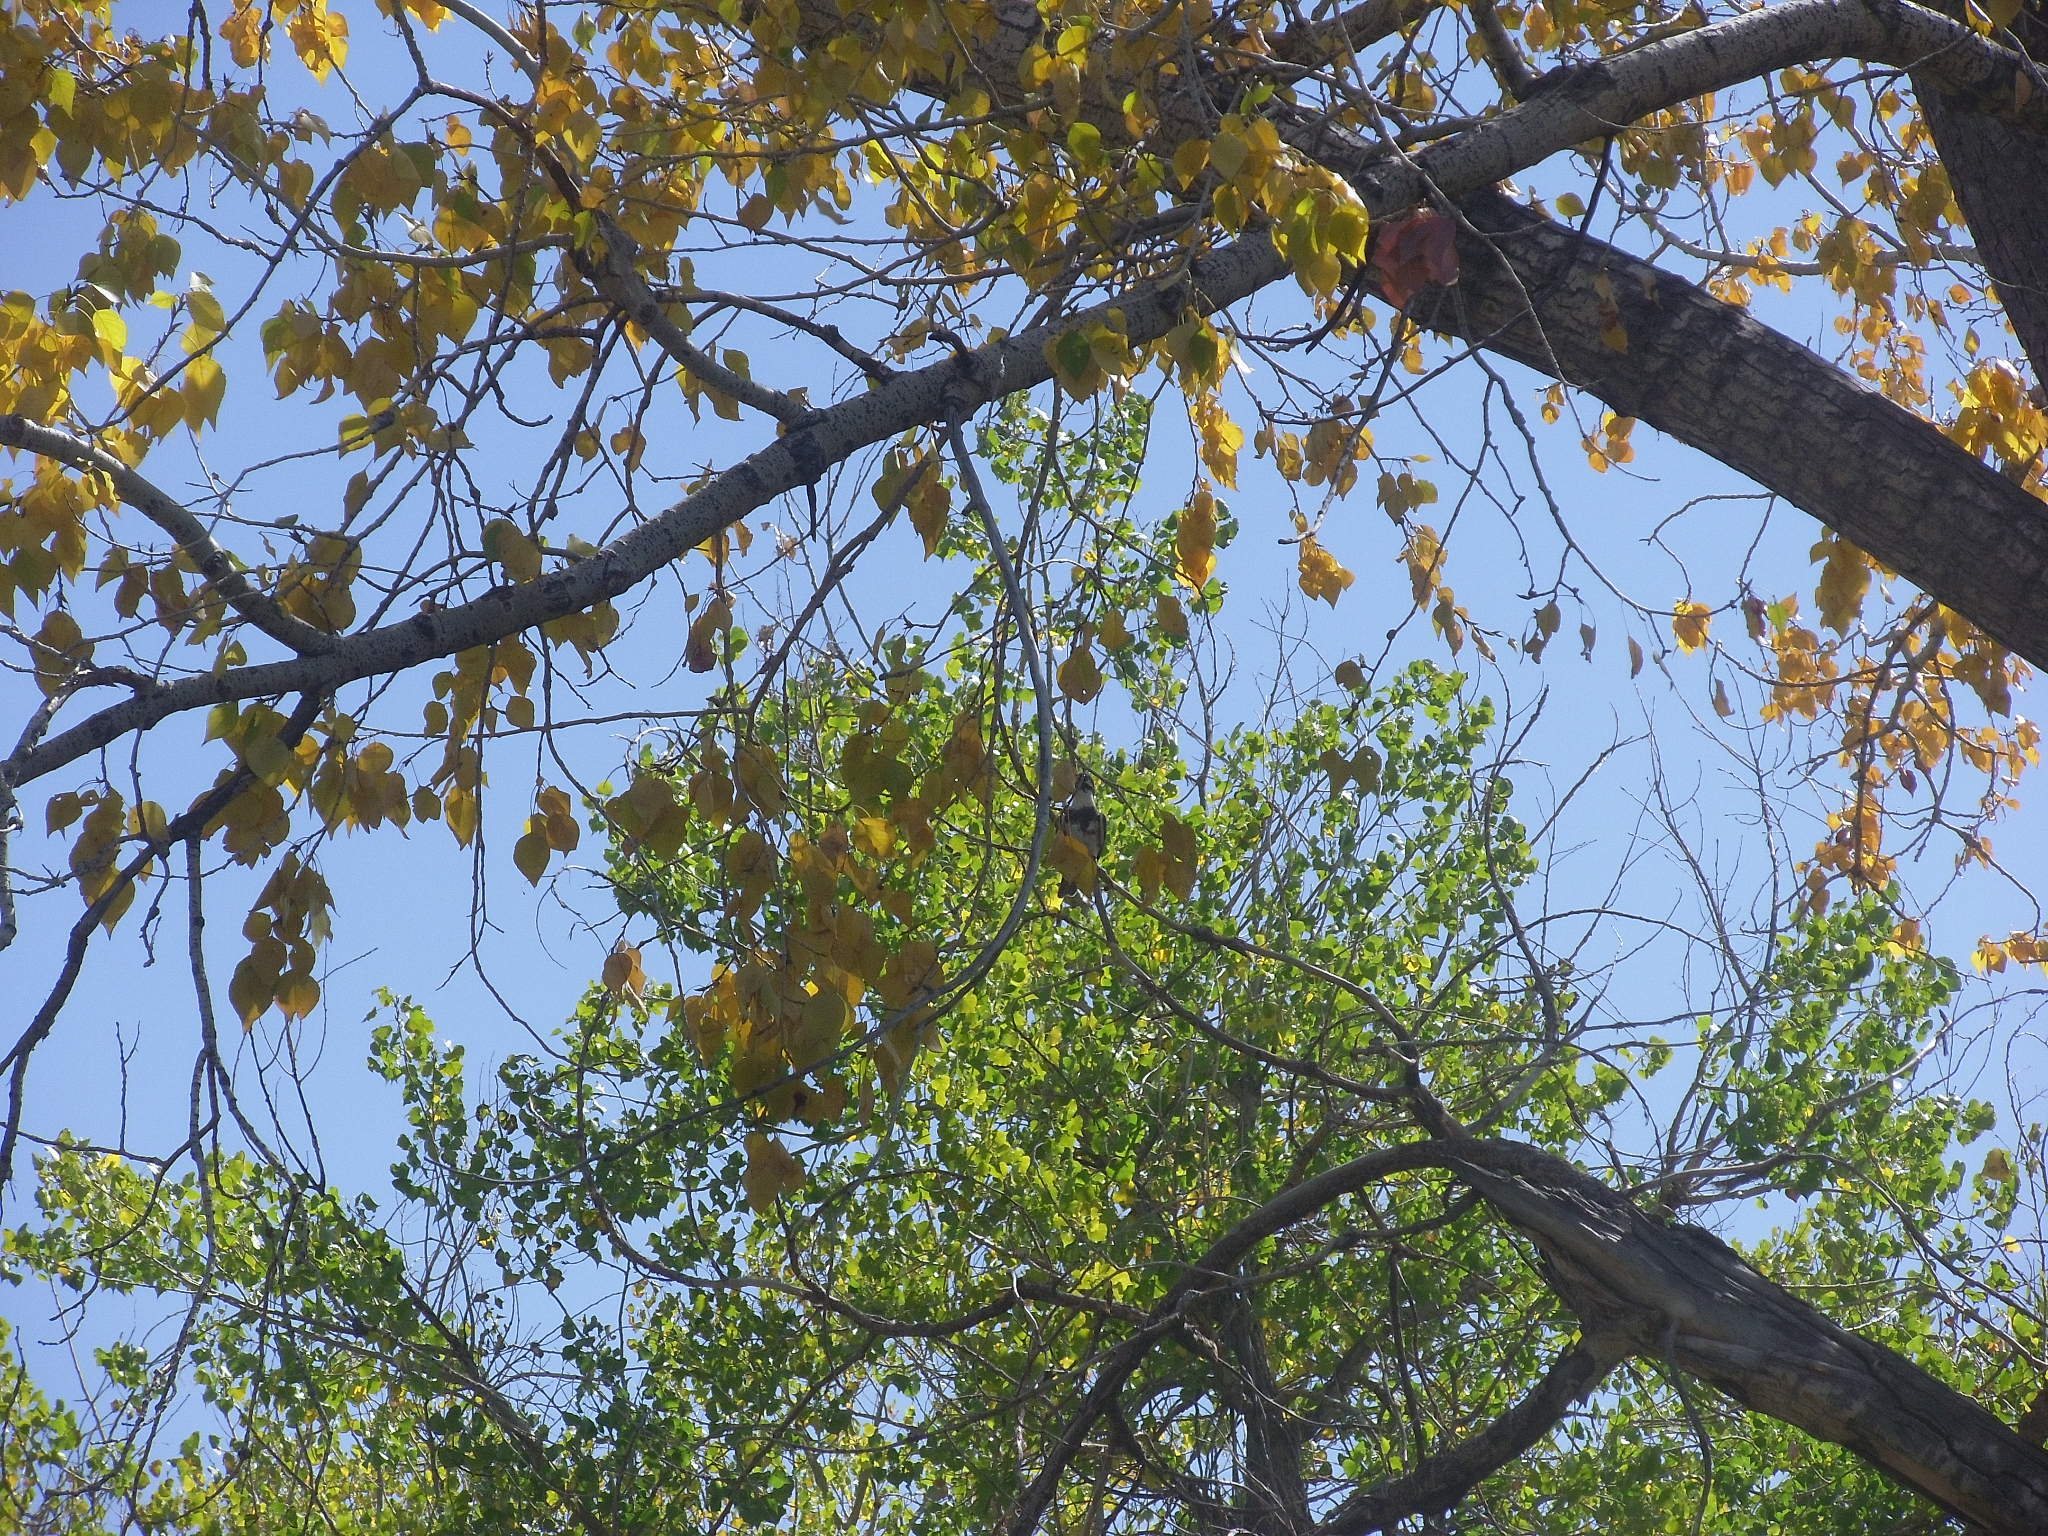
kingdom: Animalia
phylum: Chordata
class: Aves
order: Coraciiformes
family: Alcedinidae
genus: Megaceryle
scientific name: Megaceryle alcyon
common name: Belted kingfisher
